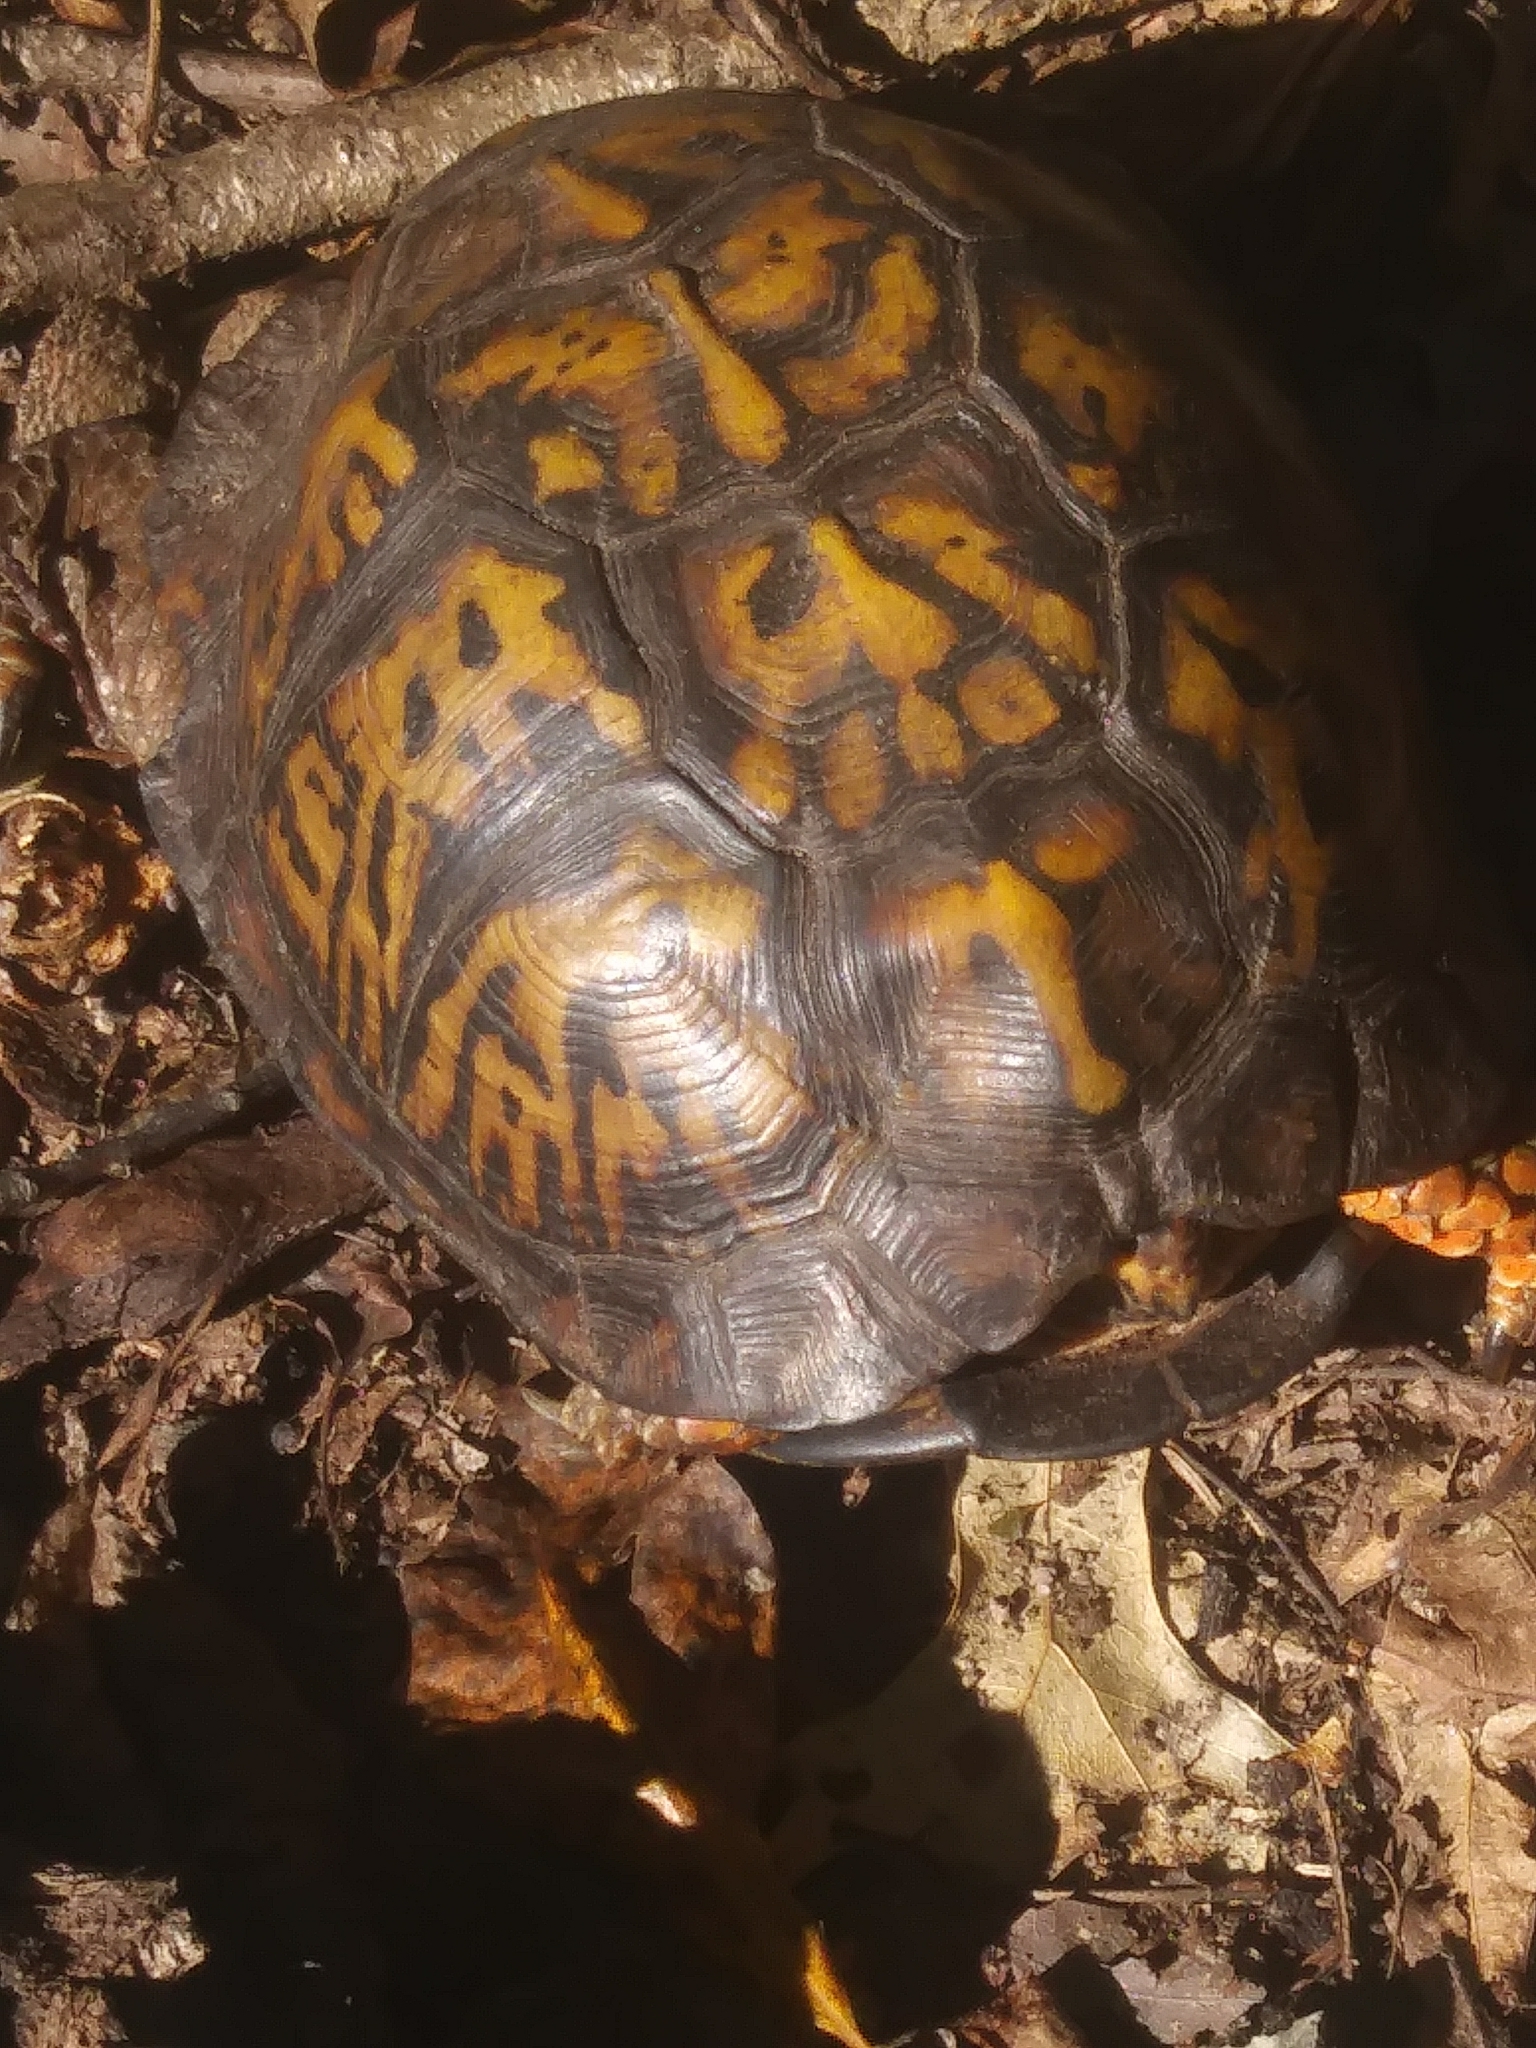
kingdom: Animalia
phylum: Chordata
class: Testudines
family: Emydidae
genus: Terrapene
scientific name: Terrapene carolina
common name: Common box turtle
